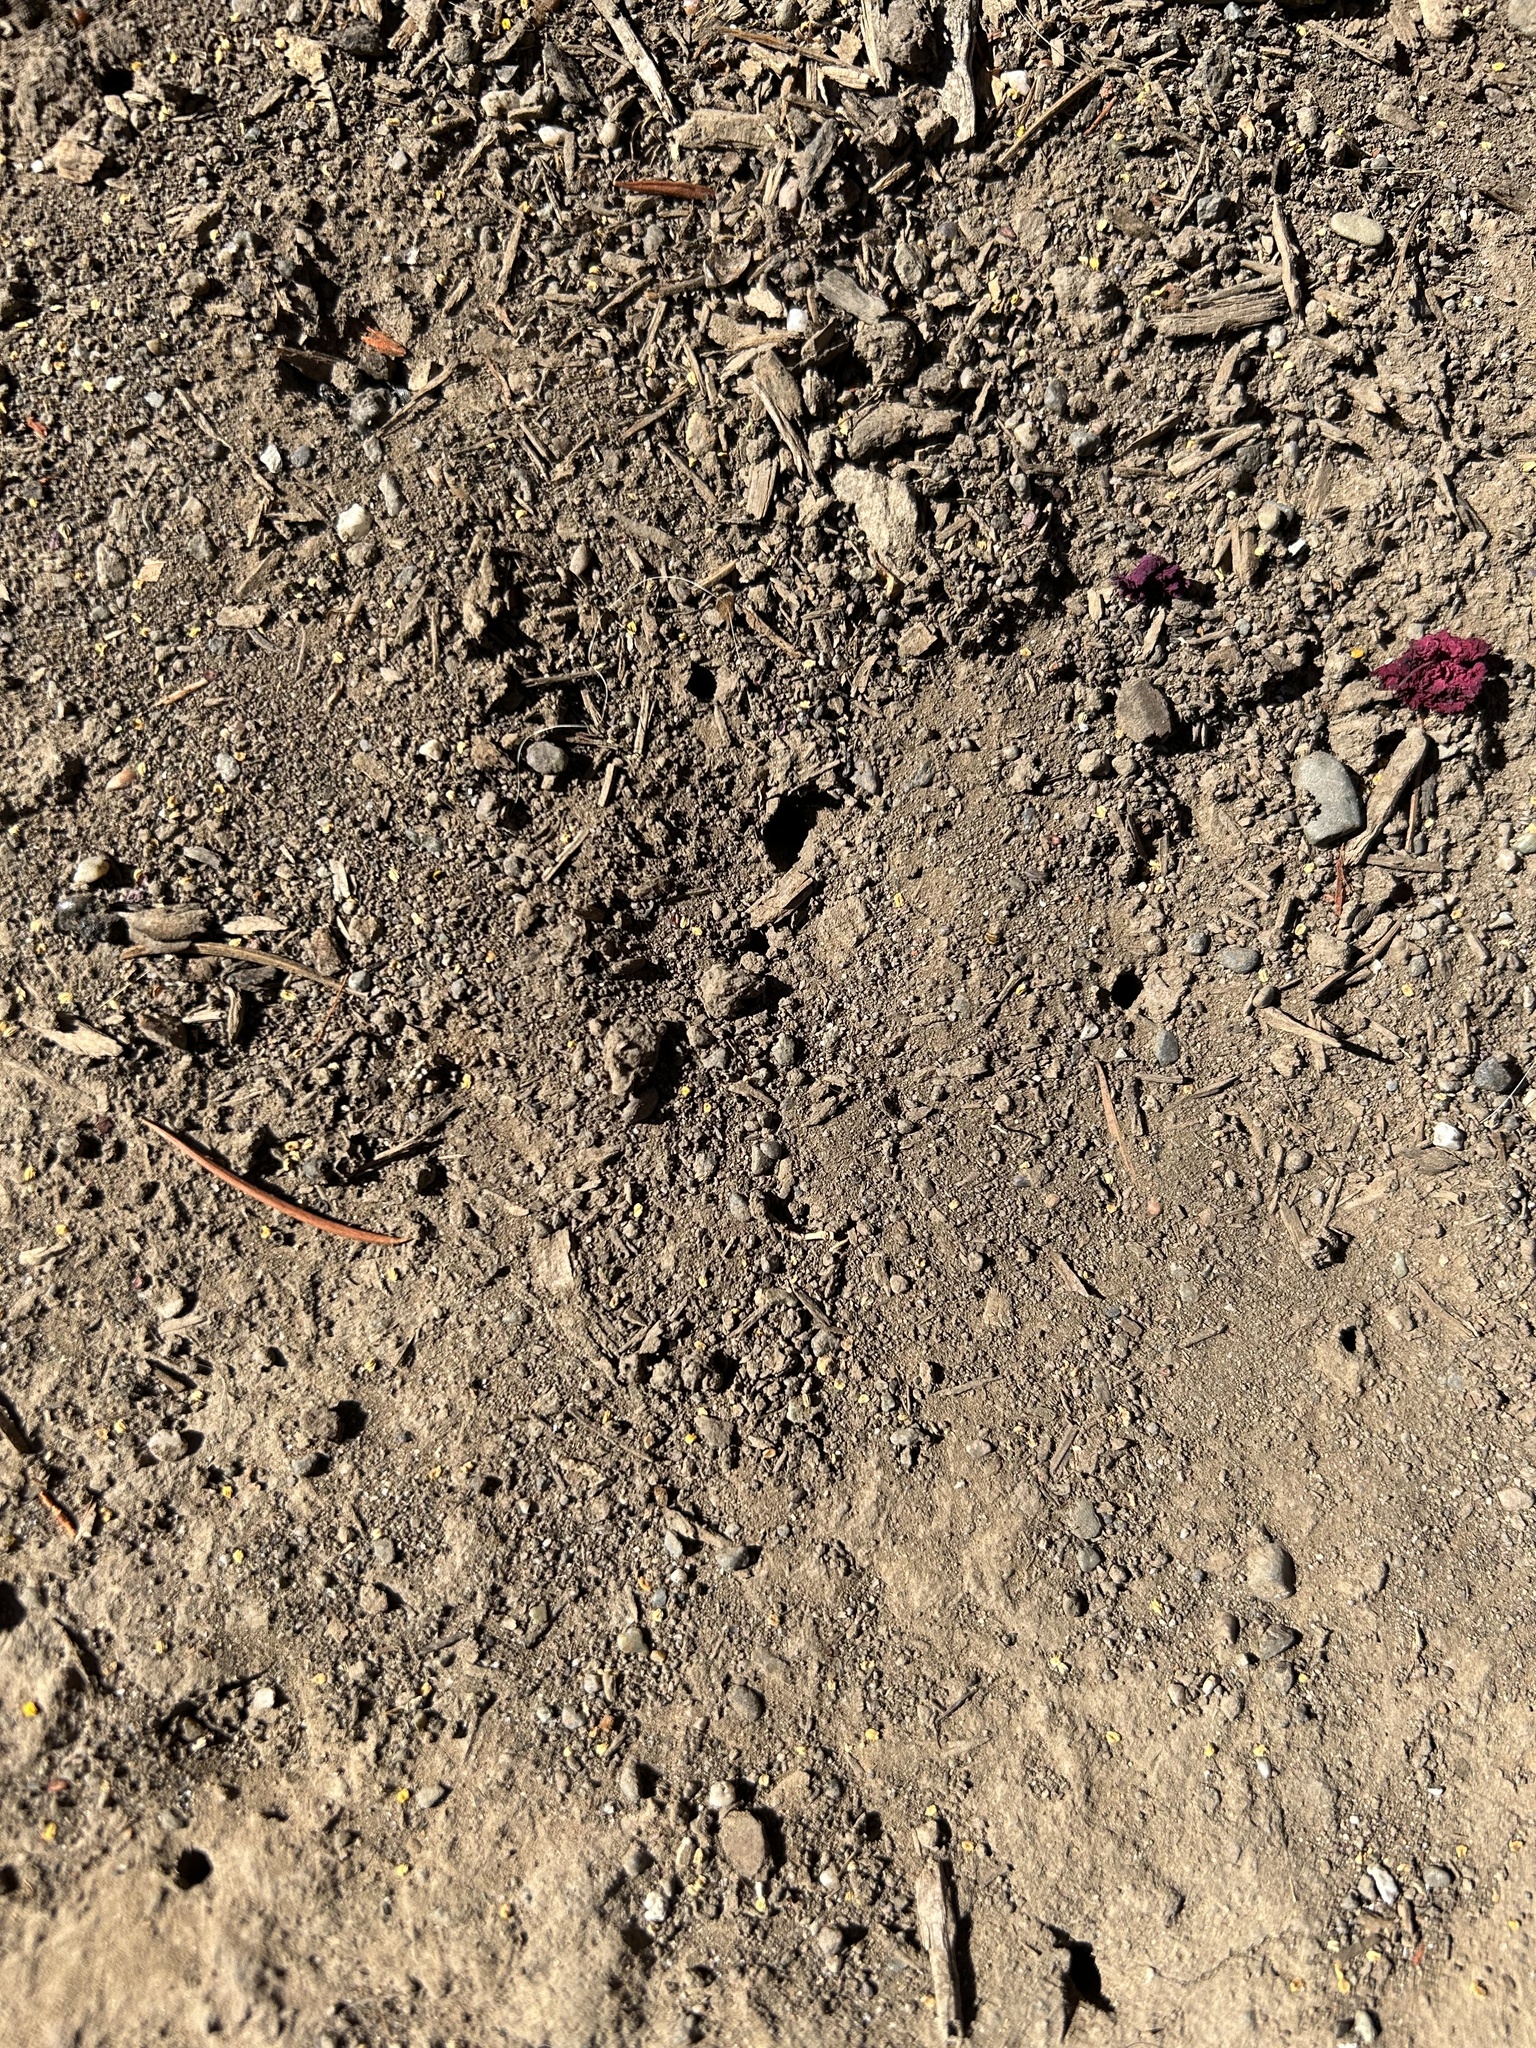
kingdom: Animalia
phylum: Arthropoda
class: Insecta
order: Hymenoptera
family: Halictidae
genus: Halictus
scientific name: Halictus tripartitus
